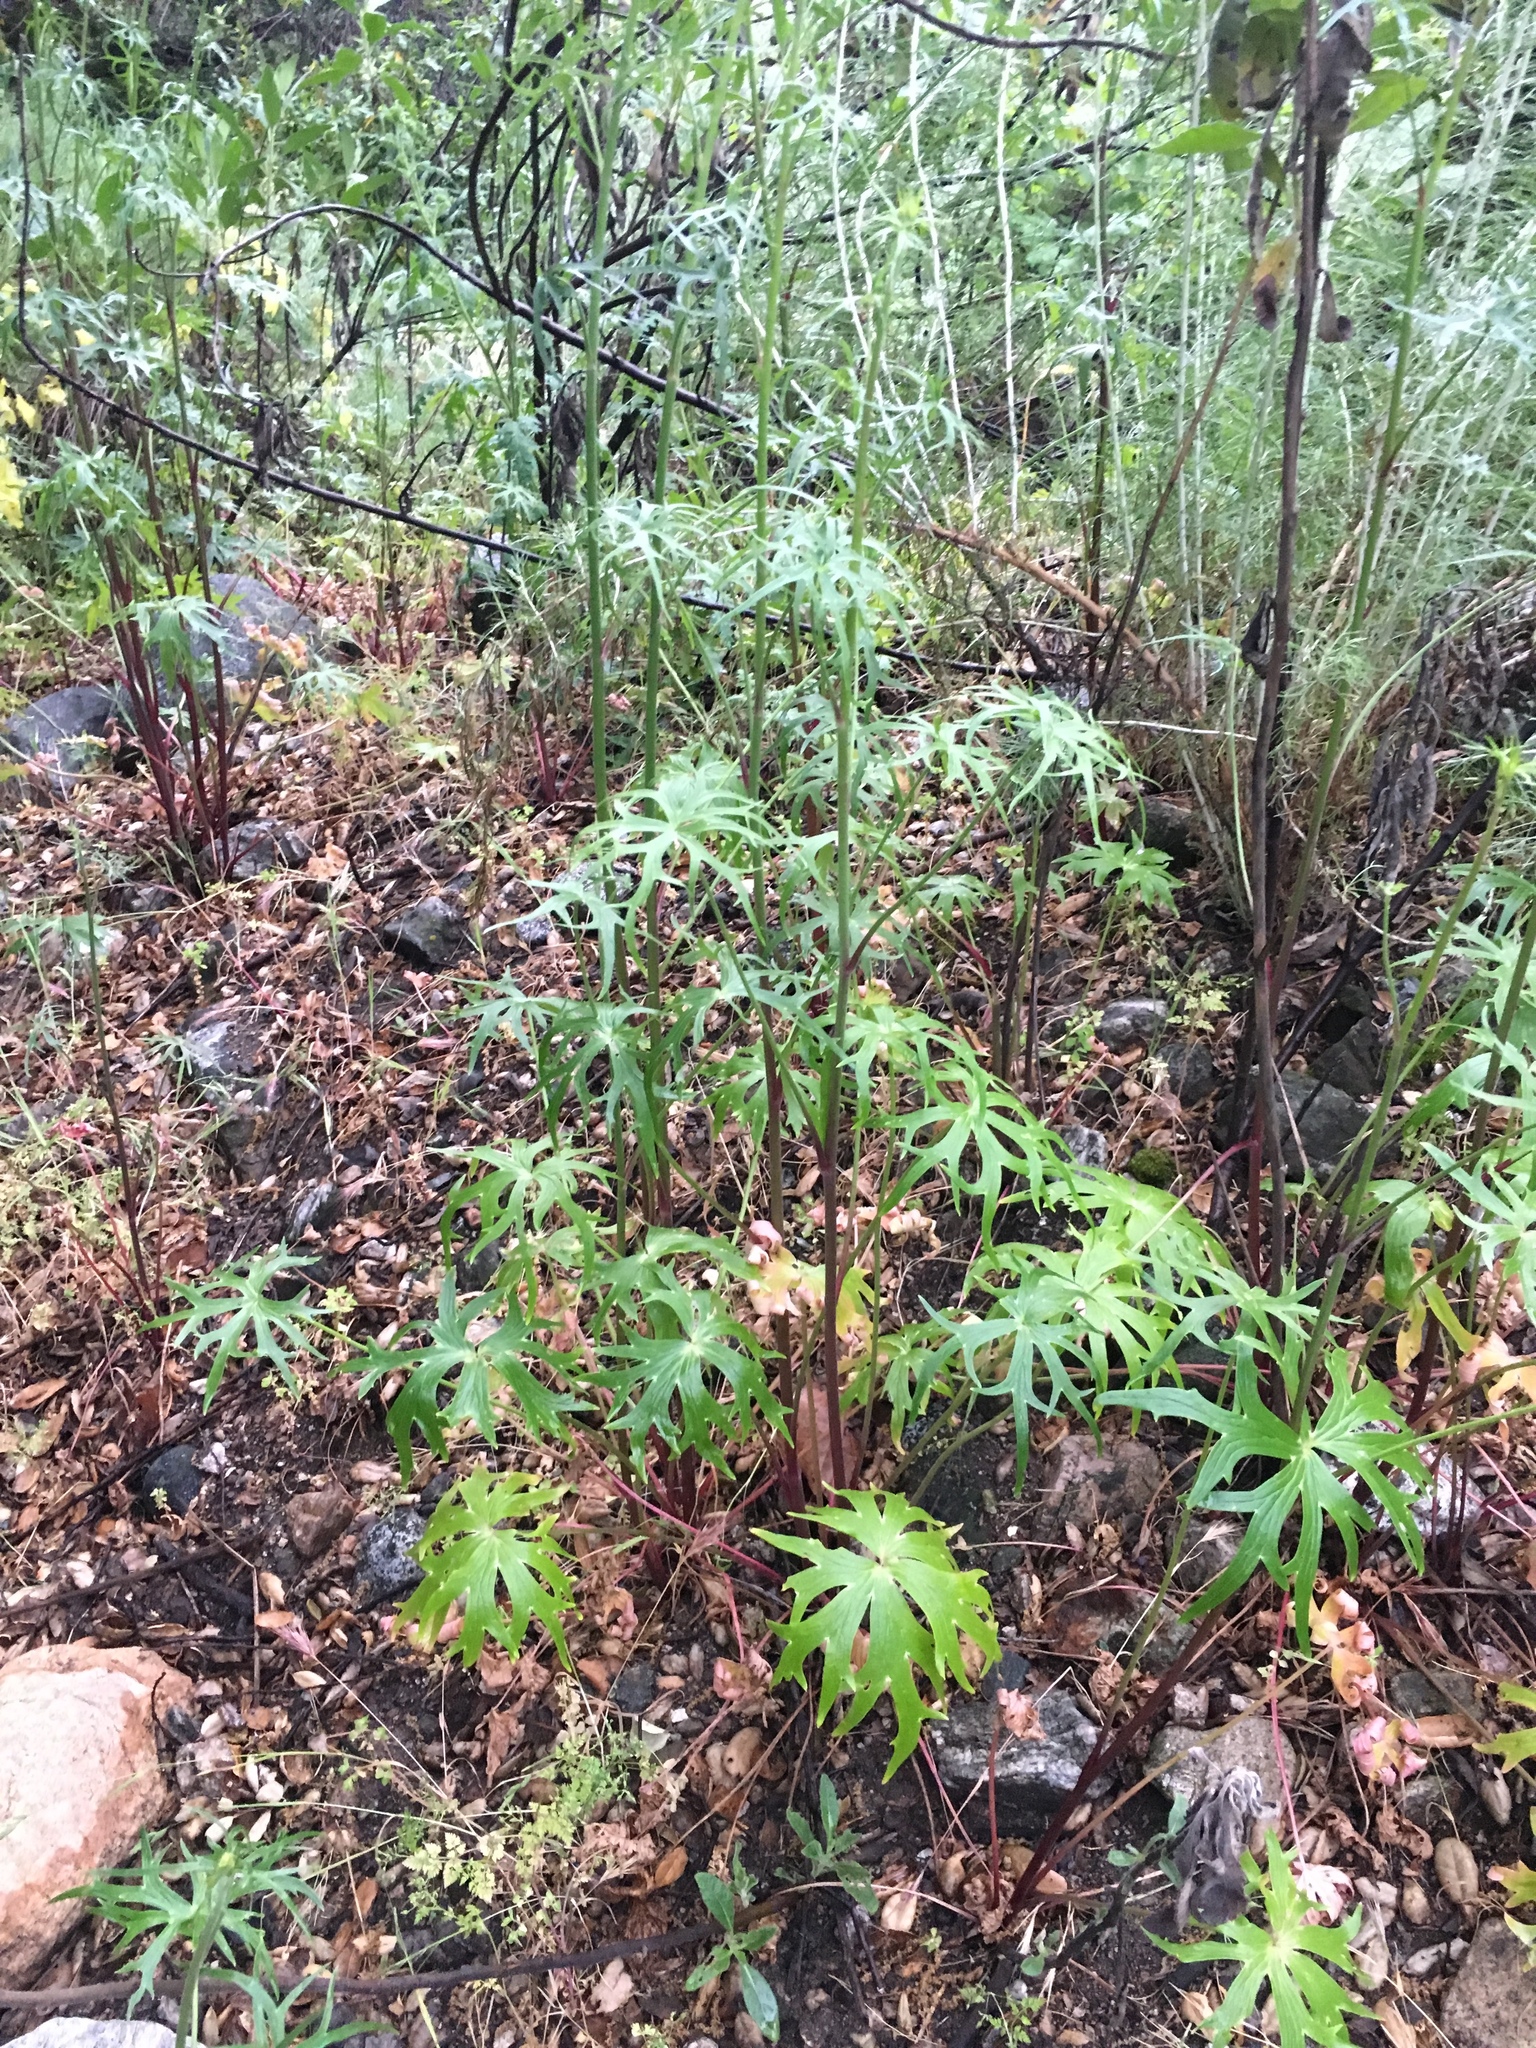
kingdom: Plantae
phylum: Tracheophyta
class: Magnoliopsida
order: Ranunculales
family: Ranunculaceae
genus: Delphinium
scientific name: Delphinium cardinale
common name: Scarlet larkspur
